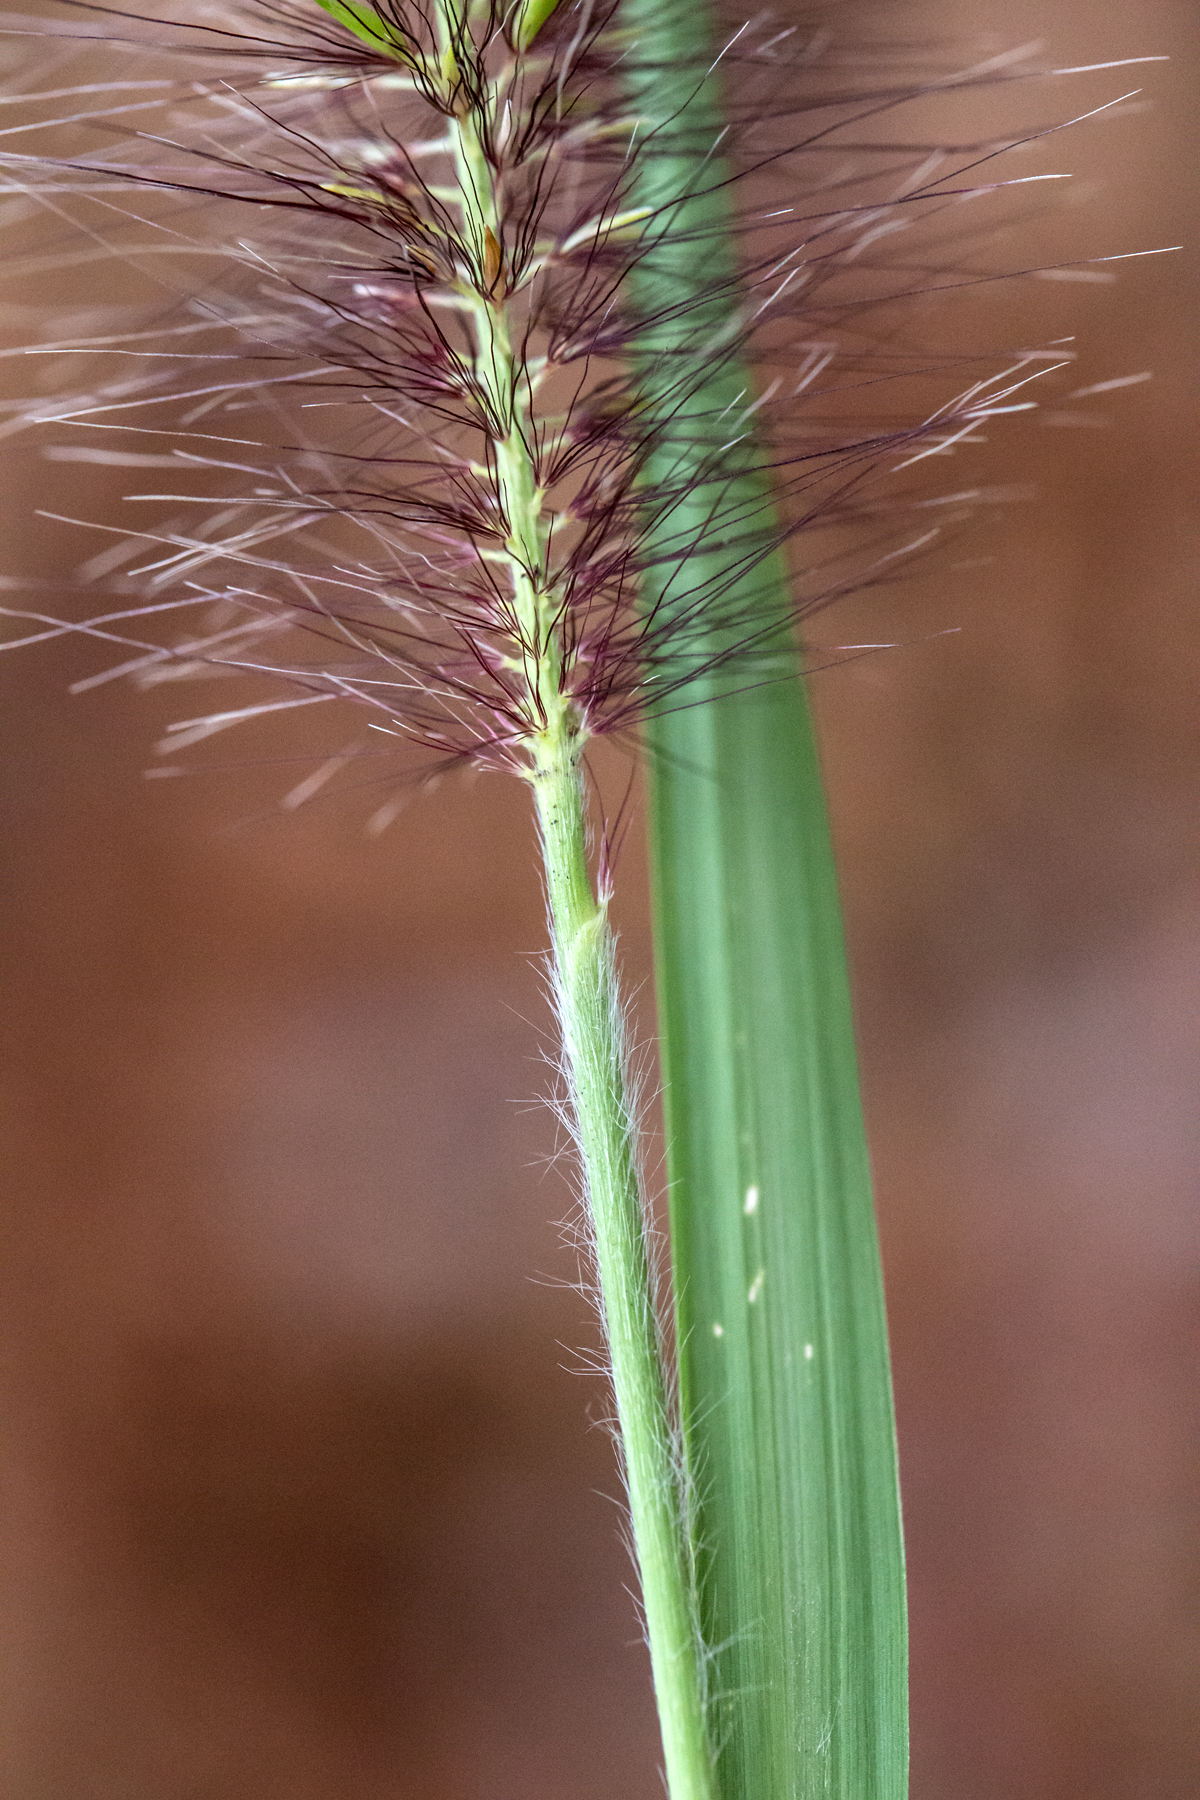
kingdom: Plantae
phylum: Tracheophyta
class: Liliopsida
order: Poales
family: Poaceae
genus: Cenchrus
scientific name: Cenchrus alopecuroides
